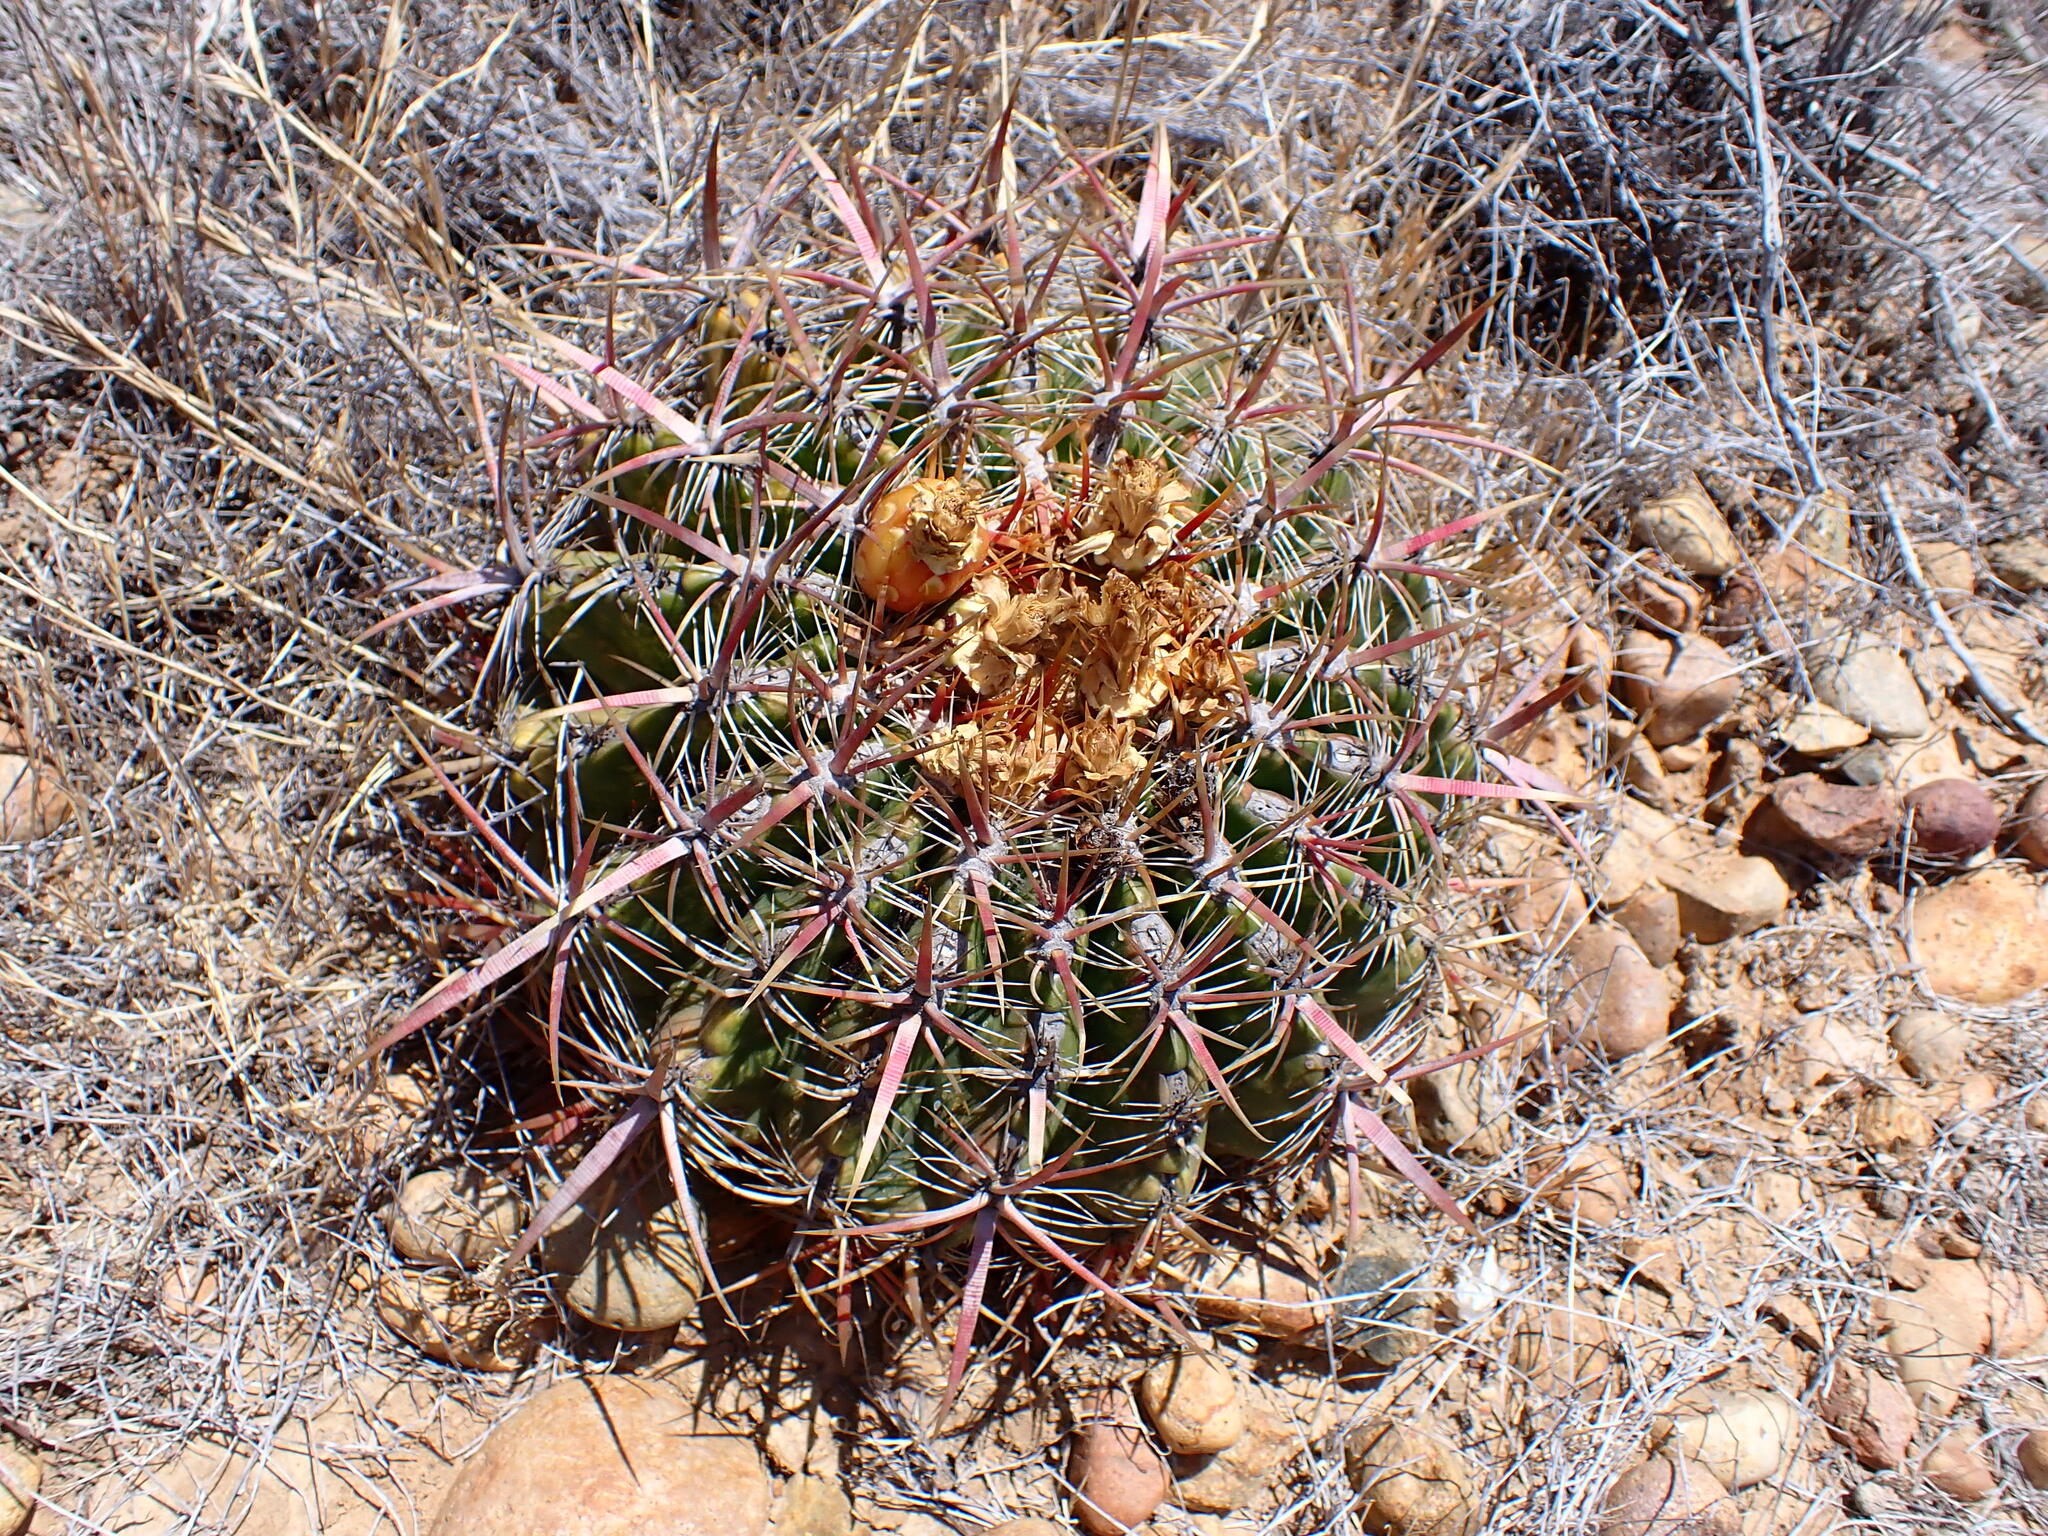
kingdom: Plantae
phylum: Tracheophyta
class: Magnoliopsida
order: Caryophyllales
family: Cactaceae
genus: Ferocactus
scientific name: Ferocactus viridescens
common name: San diego barrel cactus
